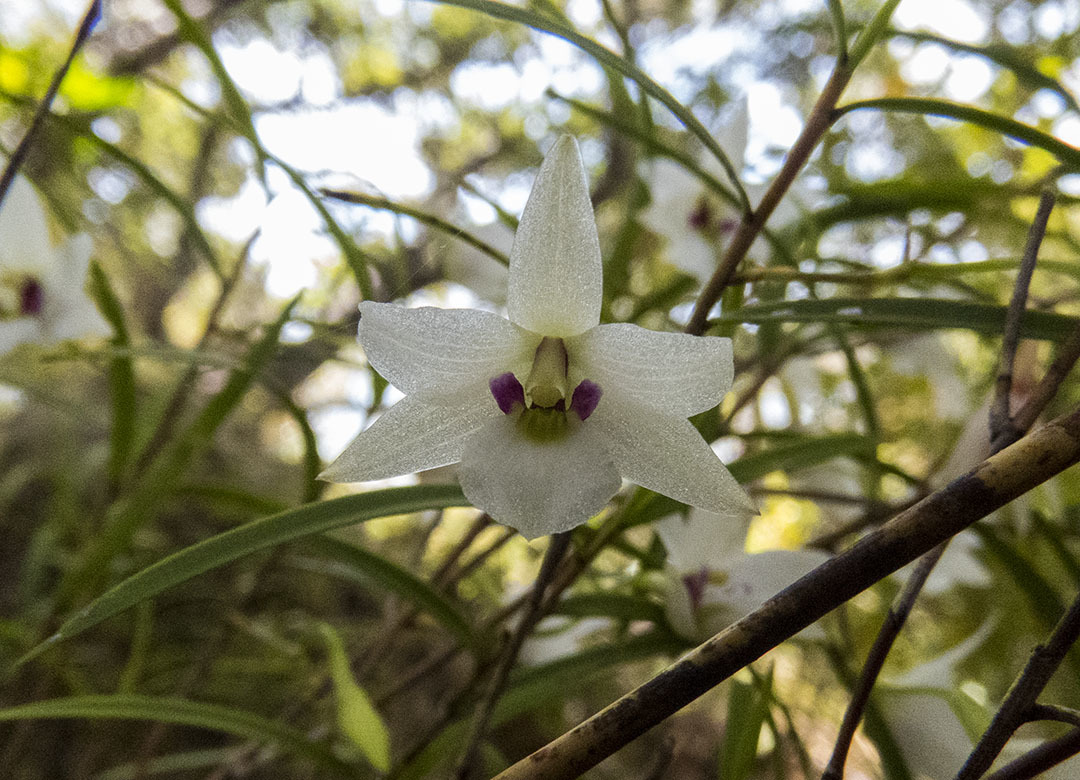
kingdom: Plantae
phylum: Tracheophyta
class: Liliopsida
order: Asparagales
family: Orchidaceae
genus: Dendrobium
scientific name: Dendrobium cunninghamii
